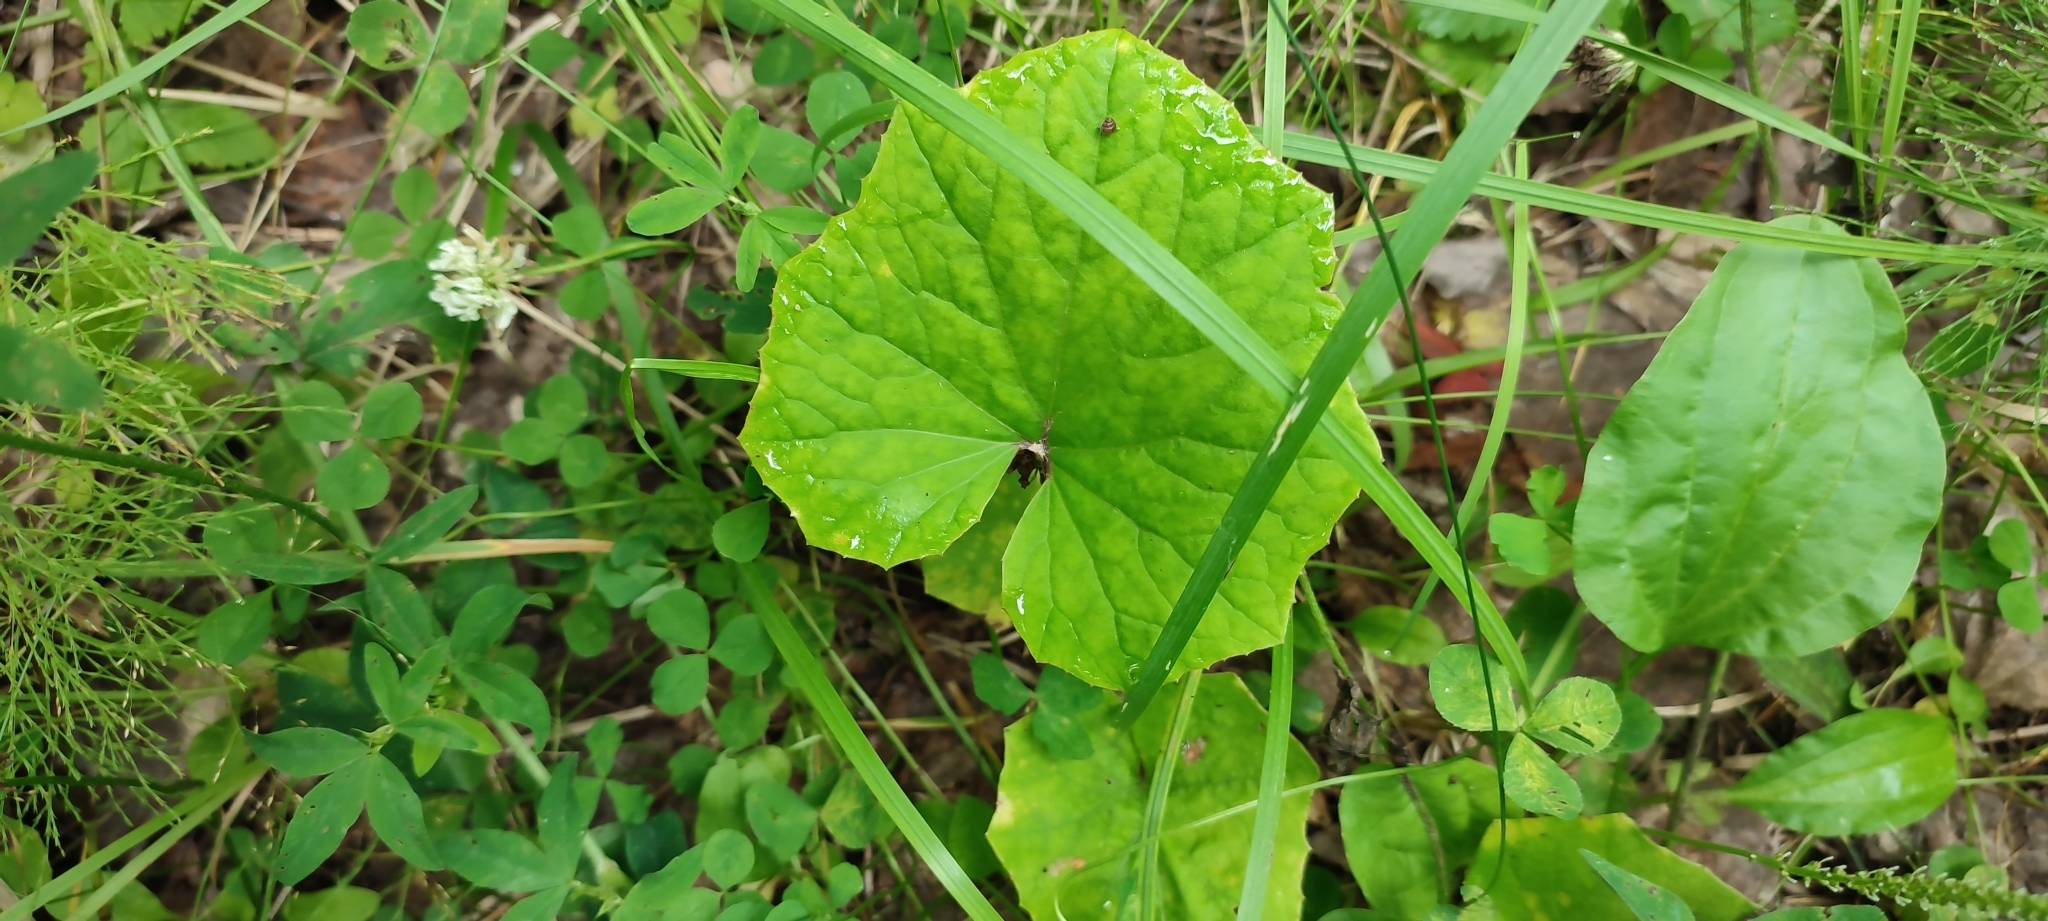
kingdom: Plantae
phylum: Tracheophyta
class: Magnoliopsida
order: Asterales
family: Asteraceae
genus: Tussilago
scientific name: Tussilago farfara
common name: Coltsfoot
